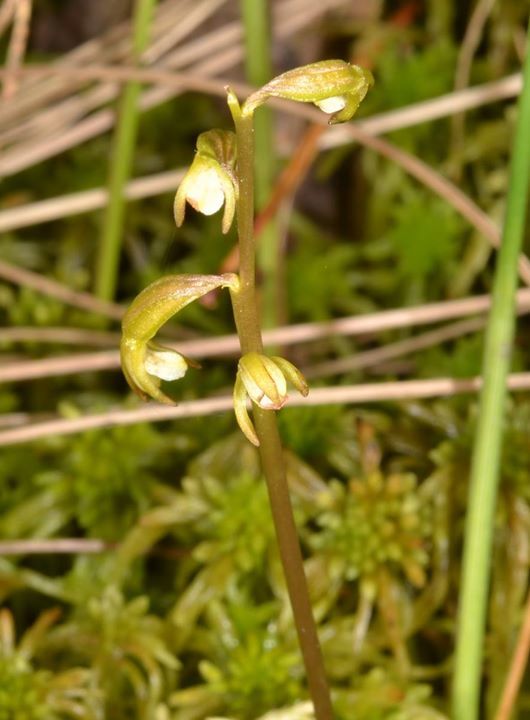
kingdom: Plantae
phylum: Tracheophyta
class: Liliopsida
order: Asparagales
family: Orchidaceae
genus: Corallorhiza
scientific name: Corallorhiza trifida
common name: Yellow coralroot
